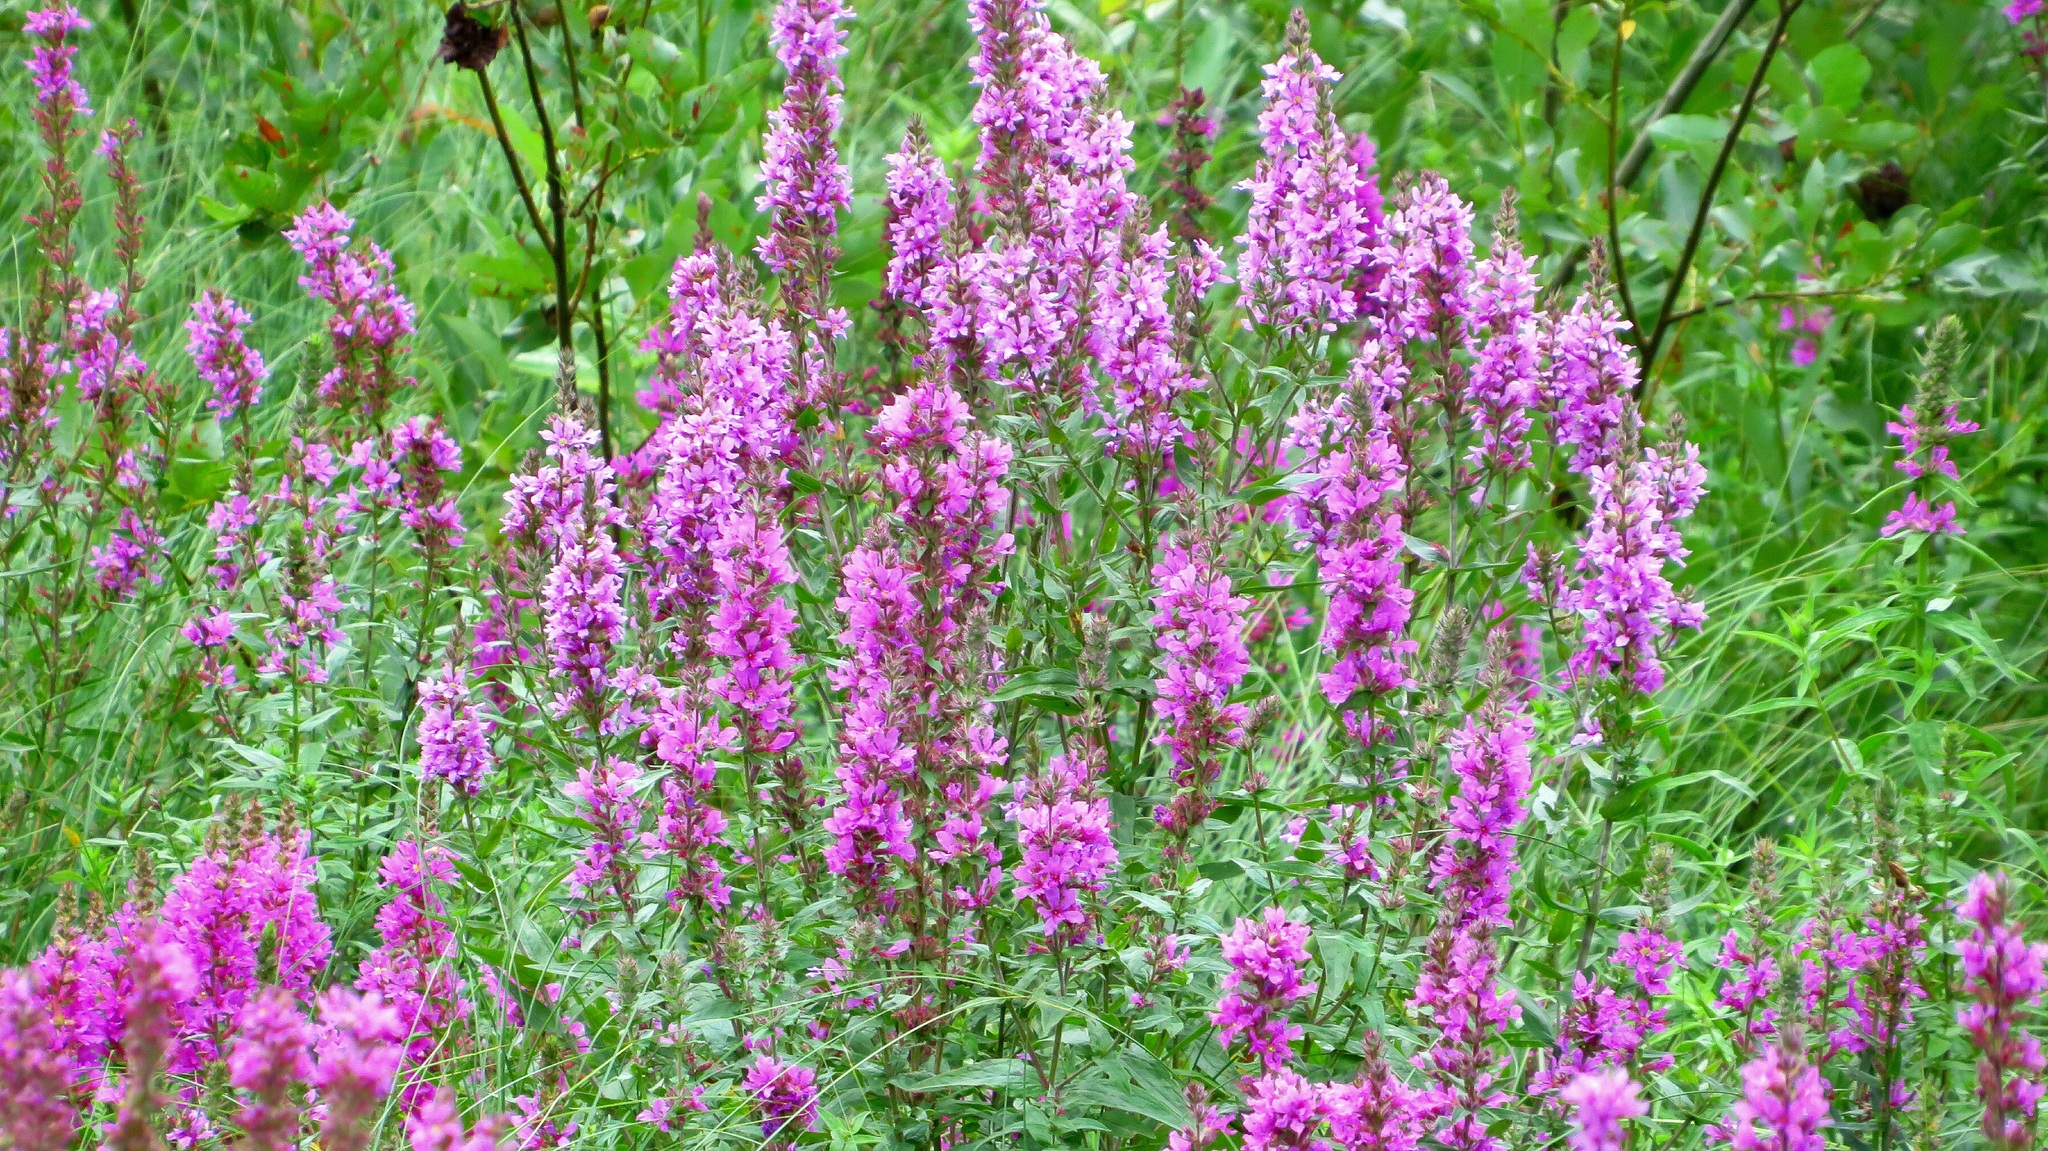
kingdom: Plantae
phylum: Tracheophyta
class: Magnoliopsida
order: Myrtales
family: Lythraceae
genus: Lythrum
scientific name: Lythrum salicaria
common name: Purple loosestrife
